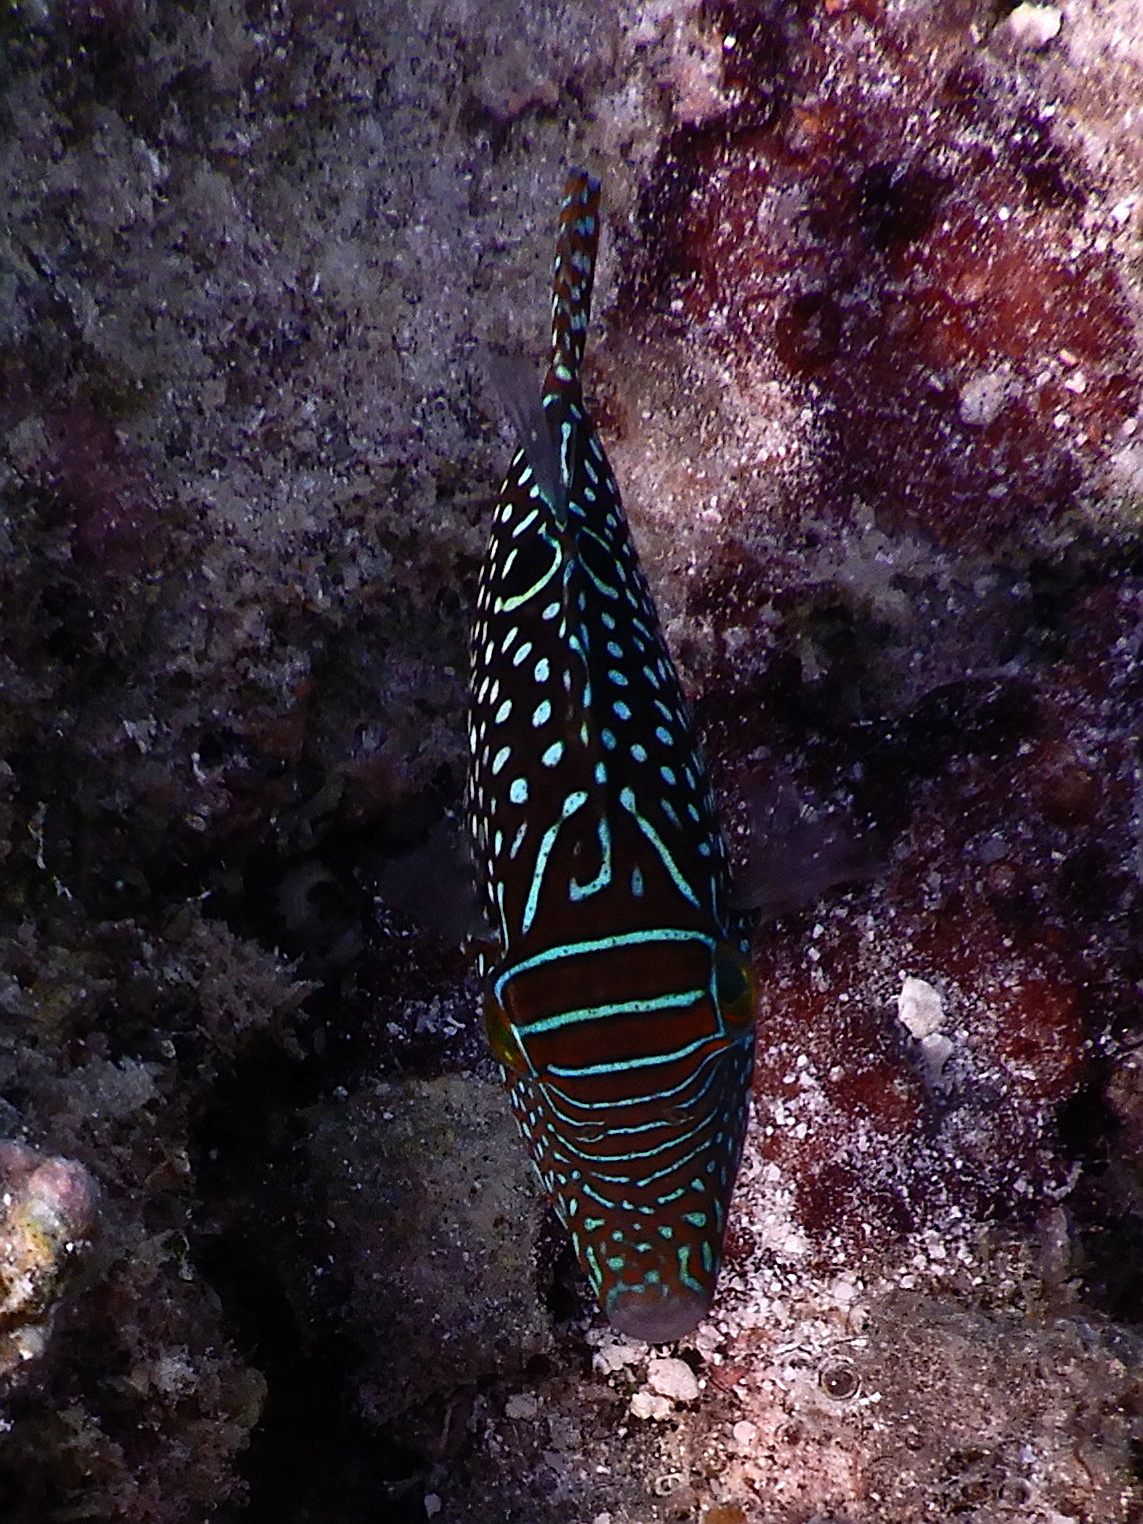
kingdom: Animalia
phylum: Chordata
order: Tetraodontiformes
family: Tetraodontidae
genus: Canthigaster
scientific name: Canthigaster solandri
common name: False-eye toby
